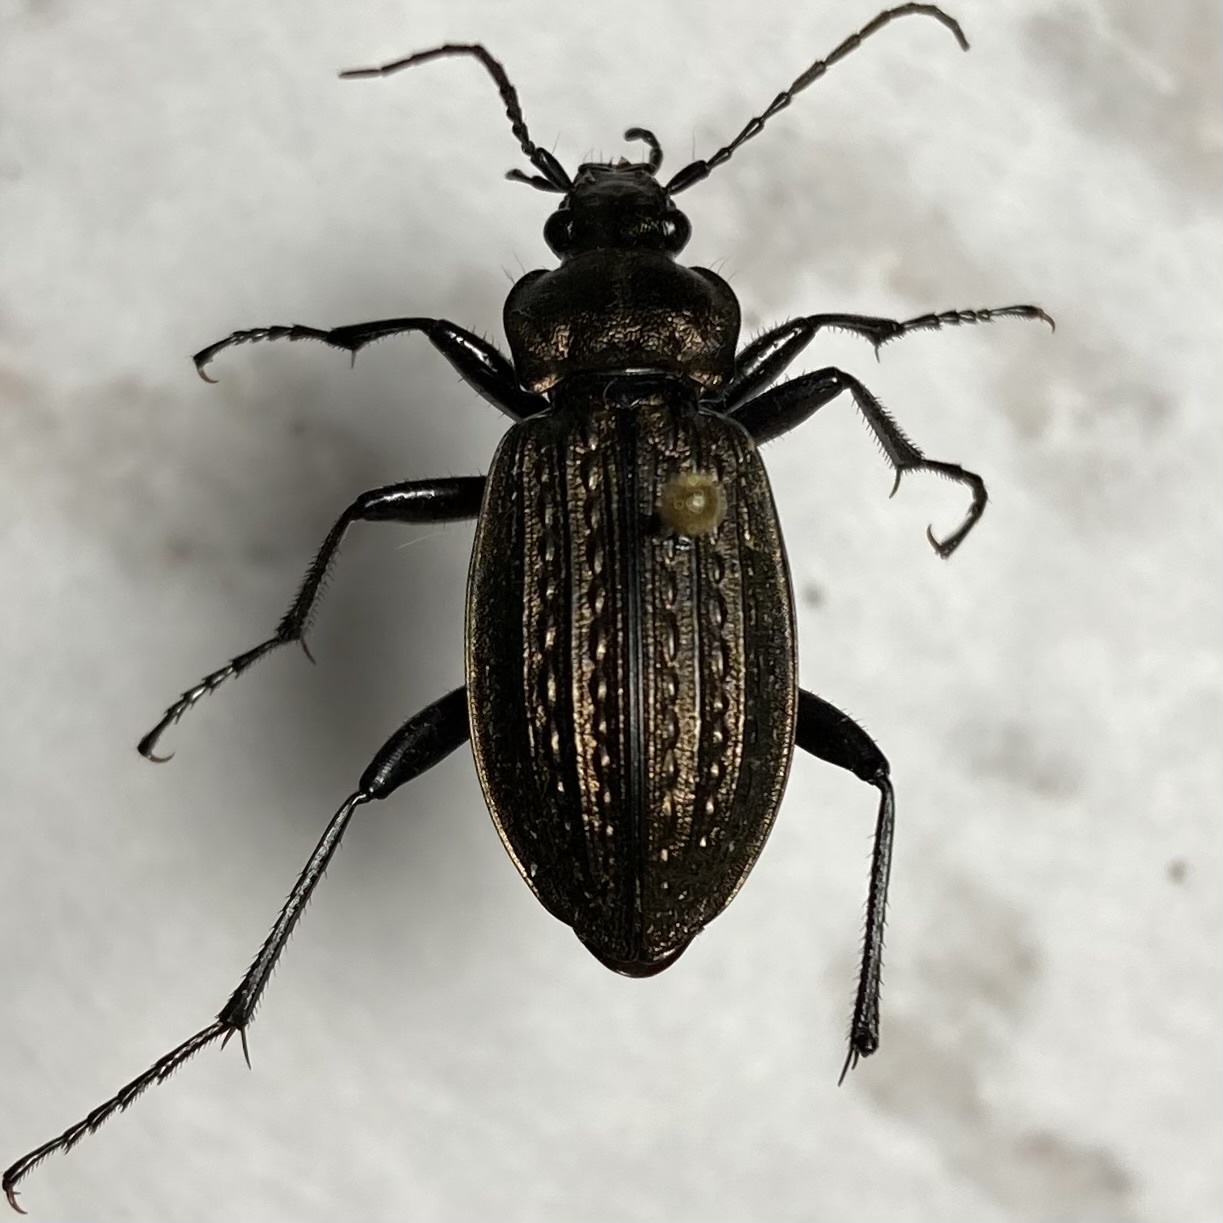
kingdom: Animalia
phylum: Arthropoda
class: Insecta
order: Coleoptera
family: Carabidae
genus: Carabus
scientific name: Carabus granulatus
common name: Granulate ground beetle
